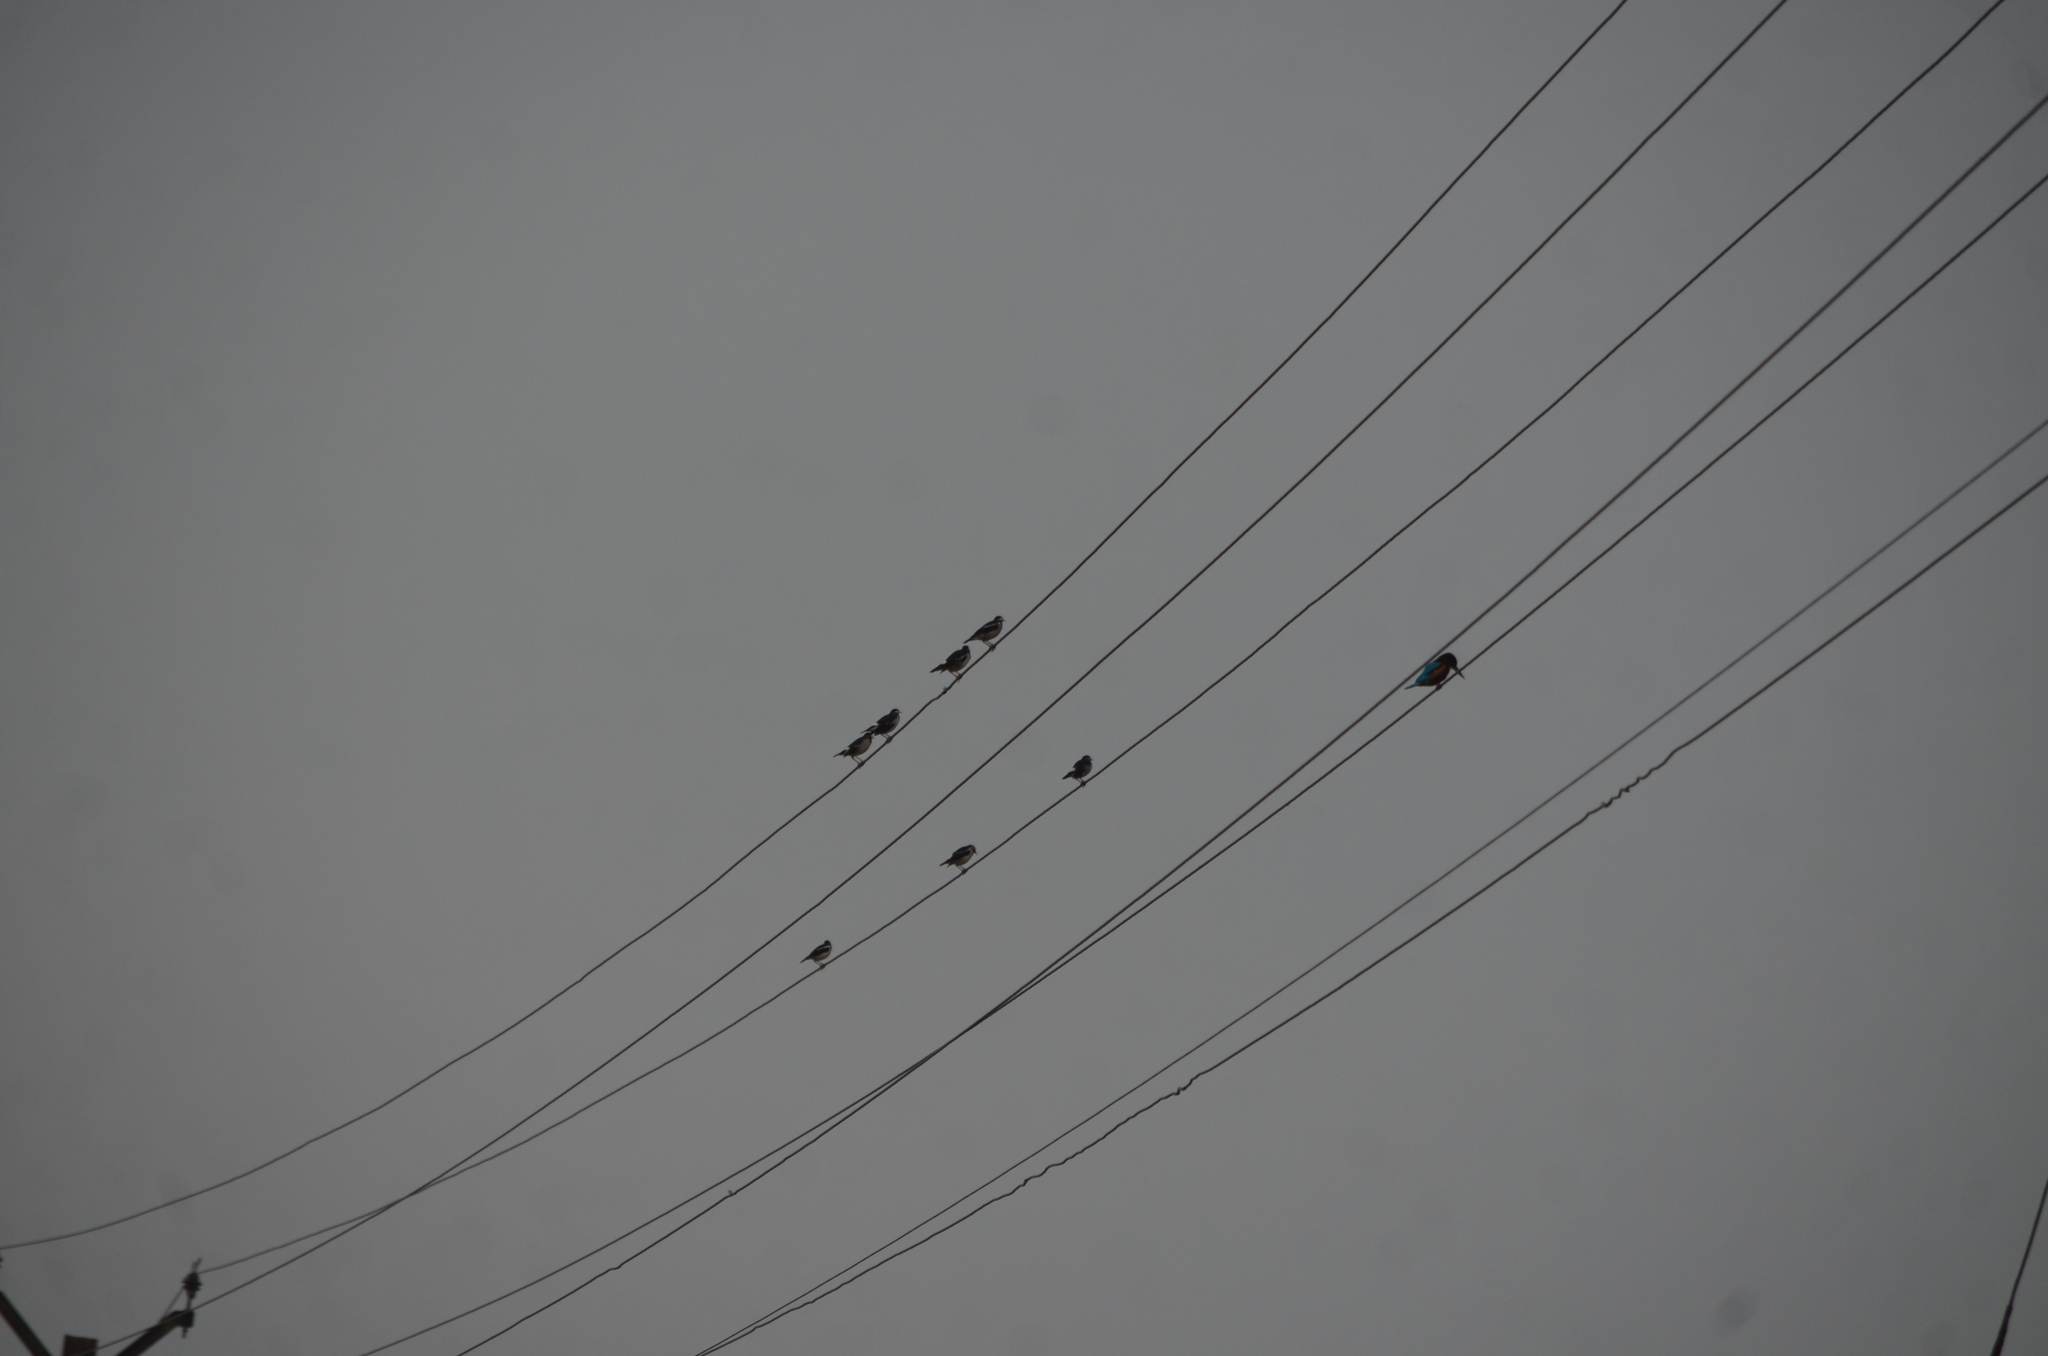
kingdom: Animalia
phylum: Chordata
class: Aves
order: Passeriformes
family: Sturnidae
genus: Gracupica
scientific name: Gracupica contra
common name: Pied myna
